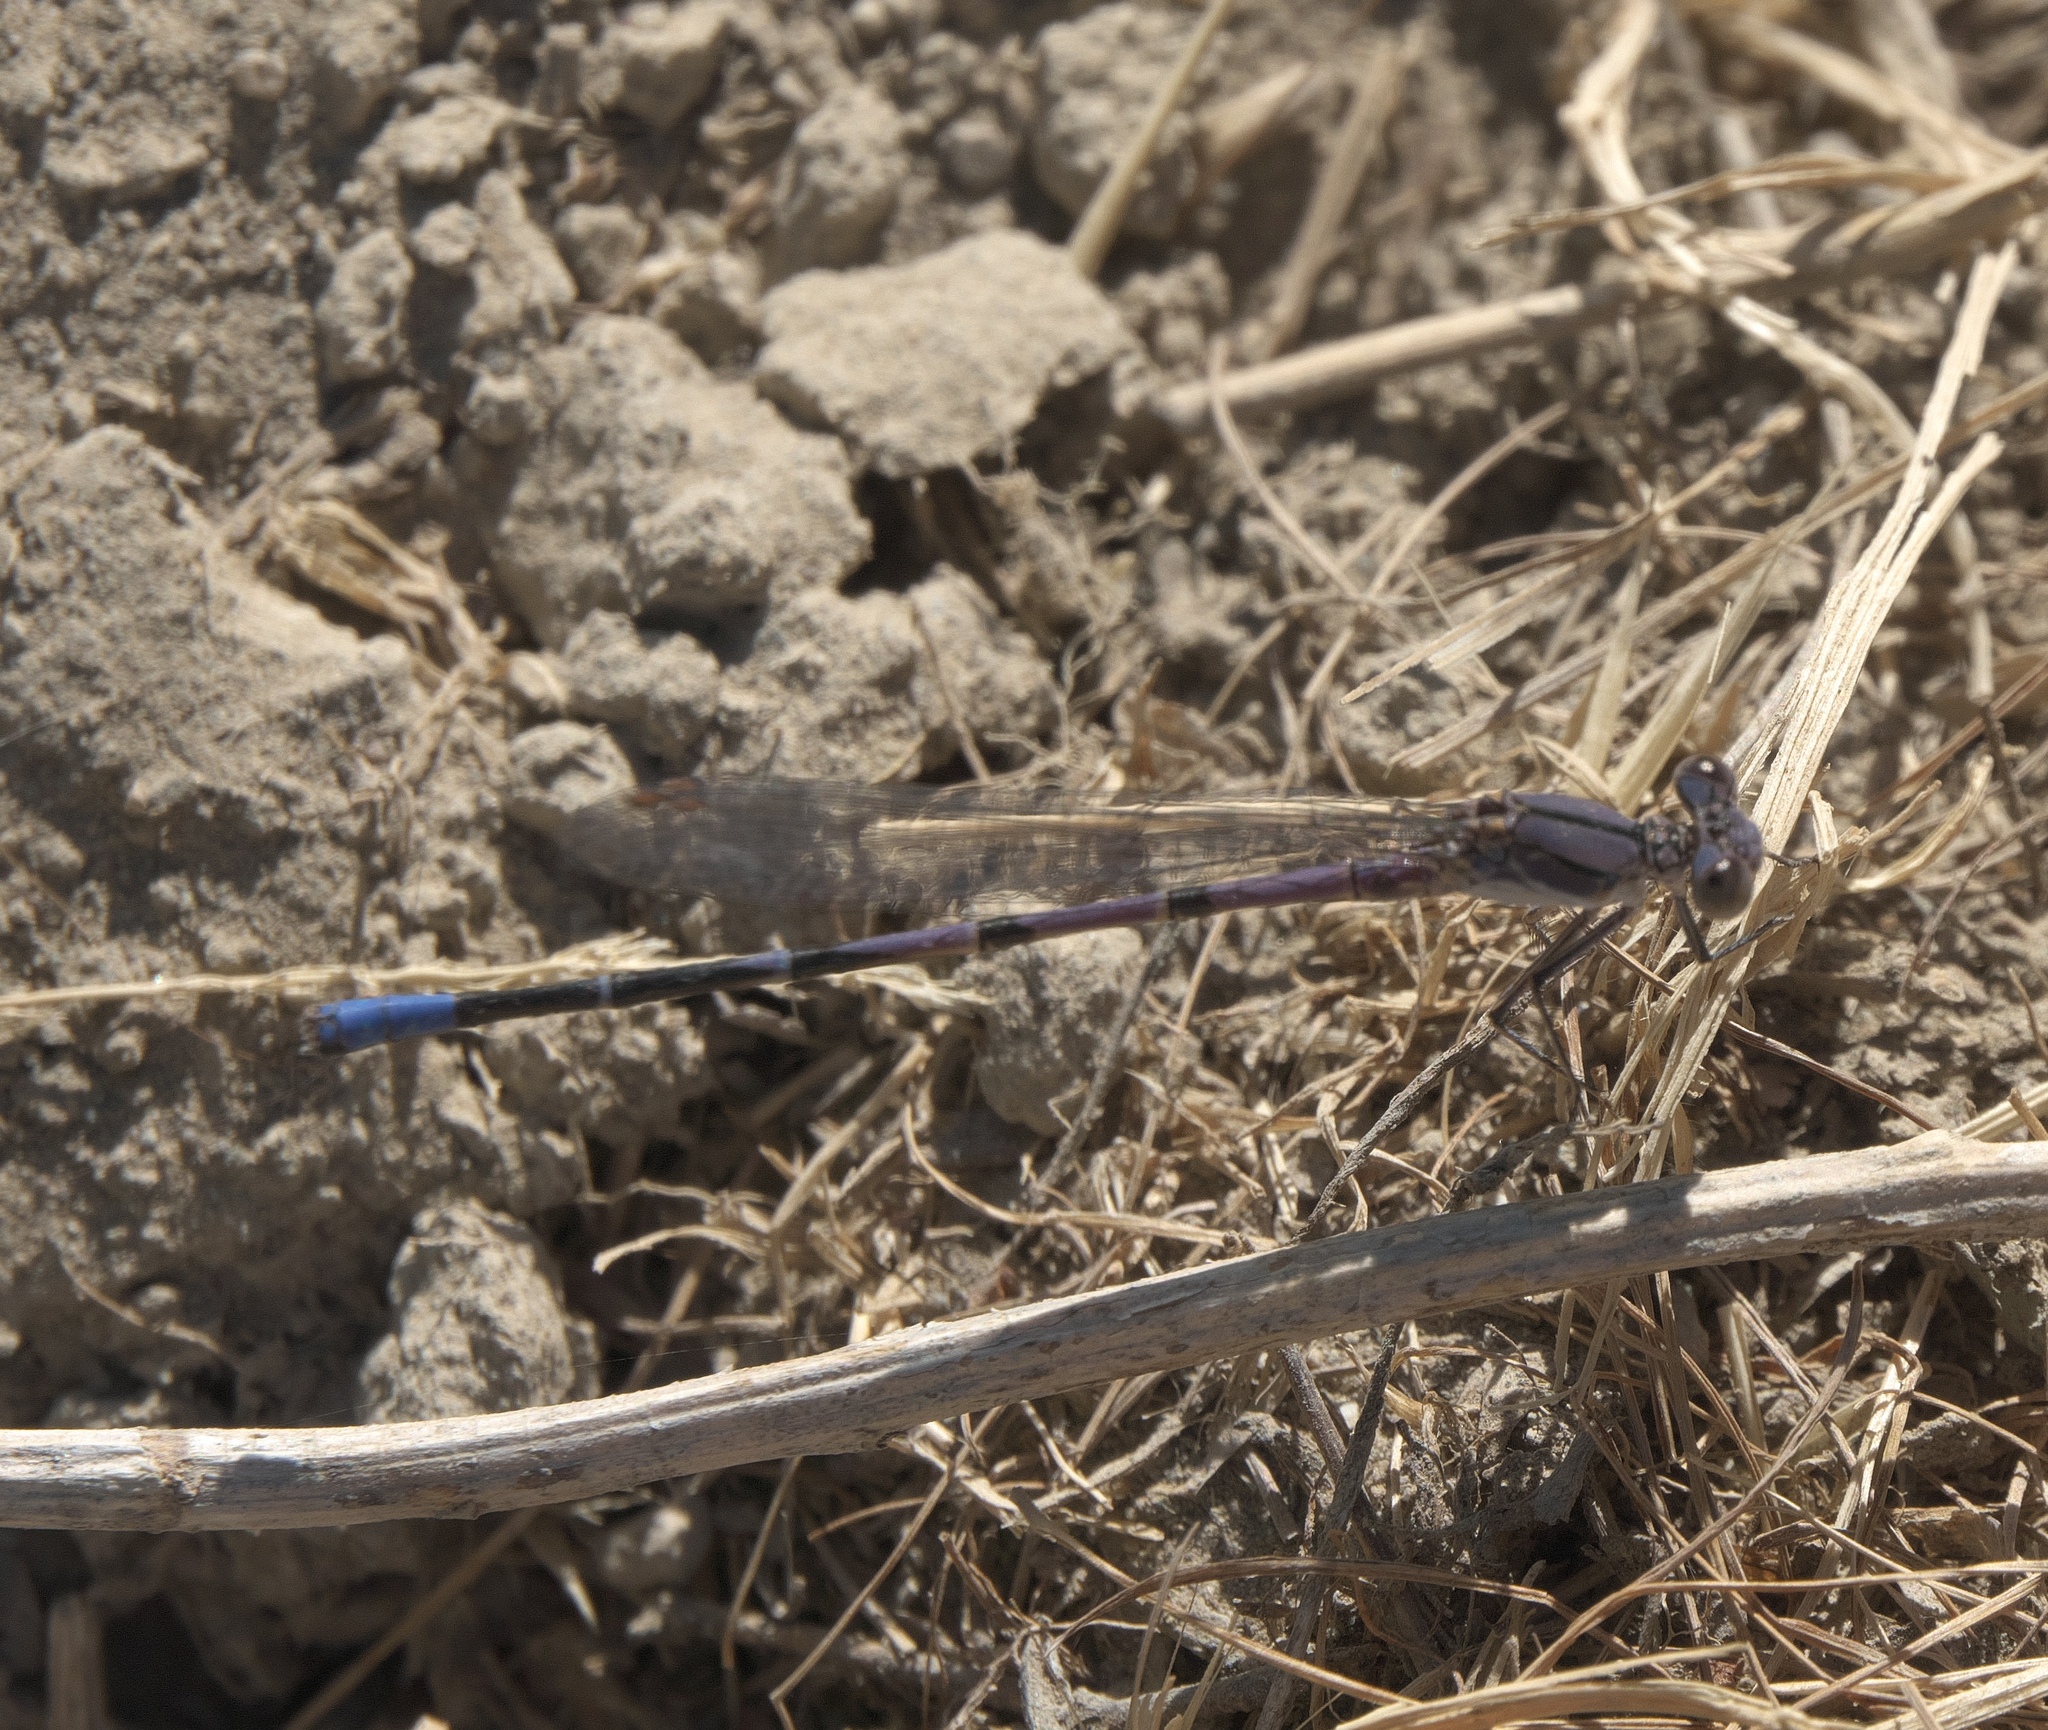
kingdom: Animalia
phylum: Arthropoda
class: Insecta
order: Odonata
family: Coenagrionidae
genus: Argia
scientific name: Argia emma
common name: Emma's dancer
